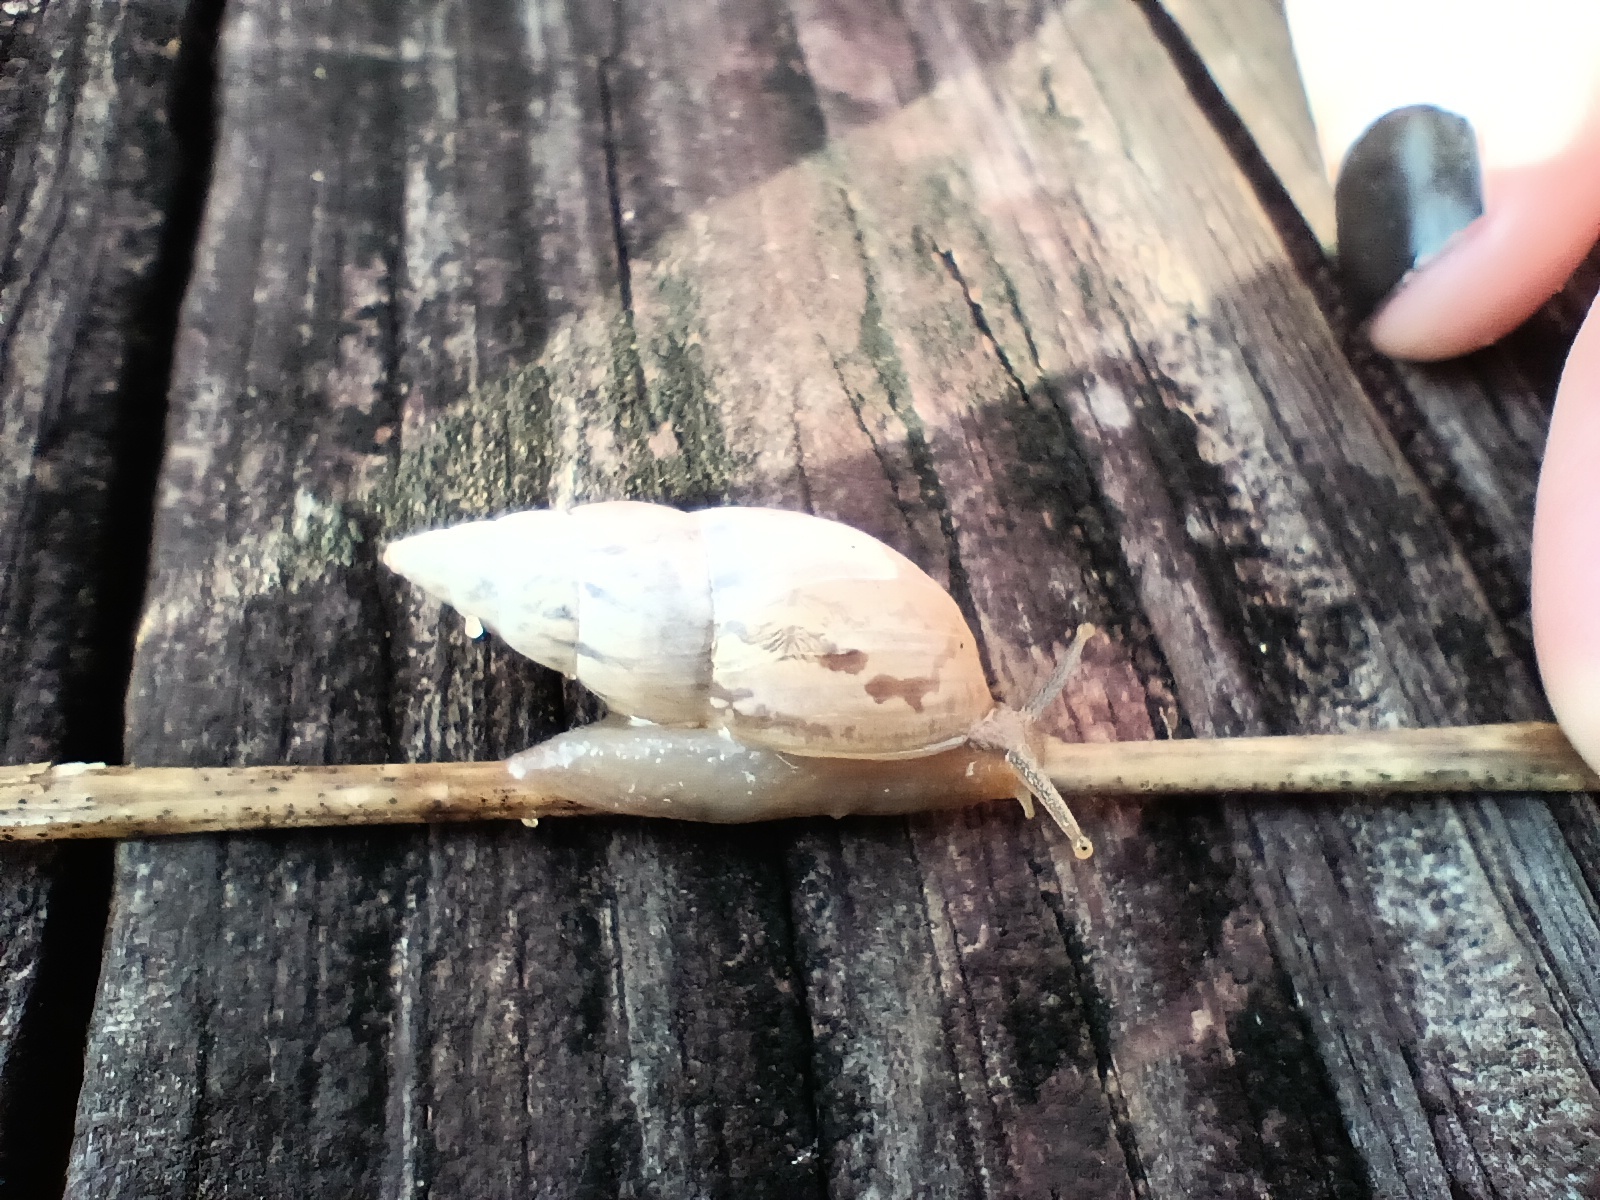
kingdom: Animalia
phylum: Mollusca
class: Gastropoda
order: Stylommatophora
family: Bulimulidae
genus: Bulimulus
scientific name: Bulimulus bonariensis
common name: Snail
